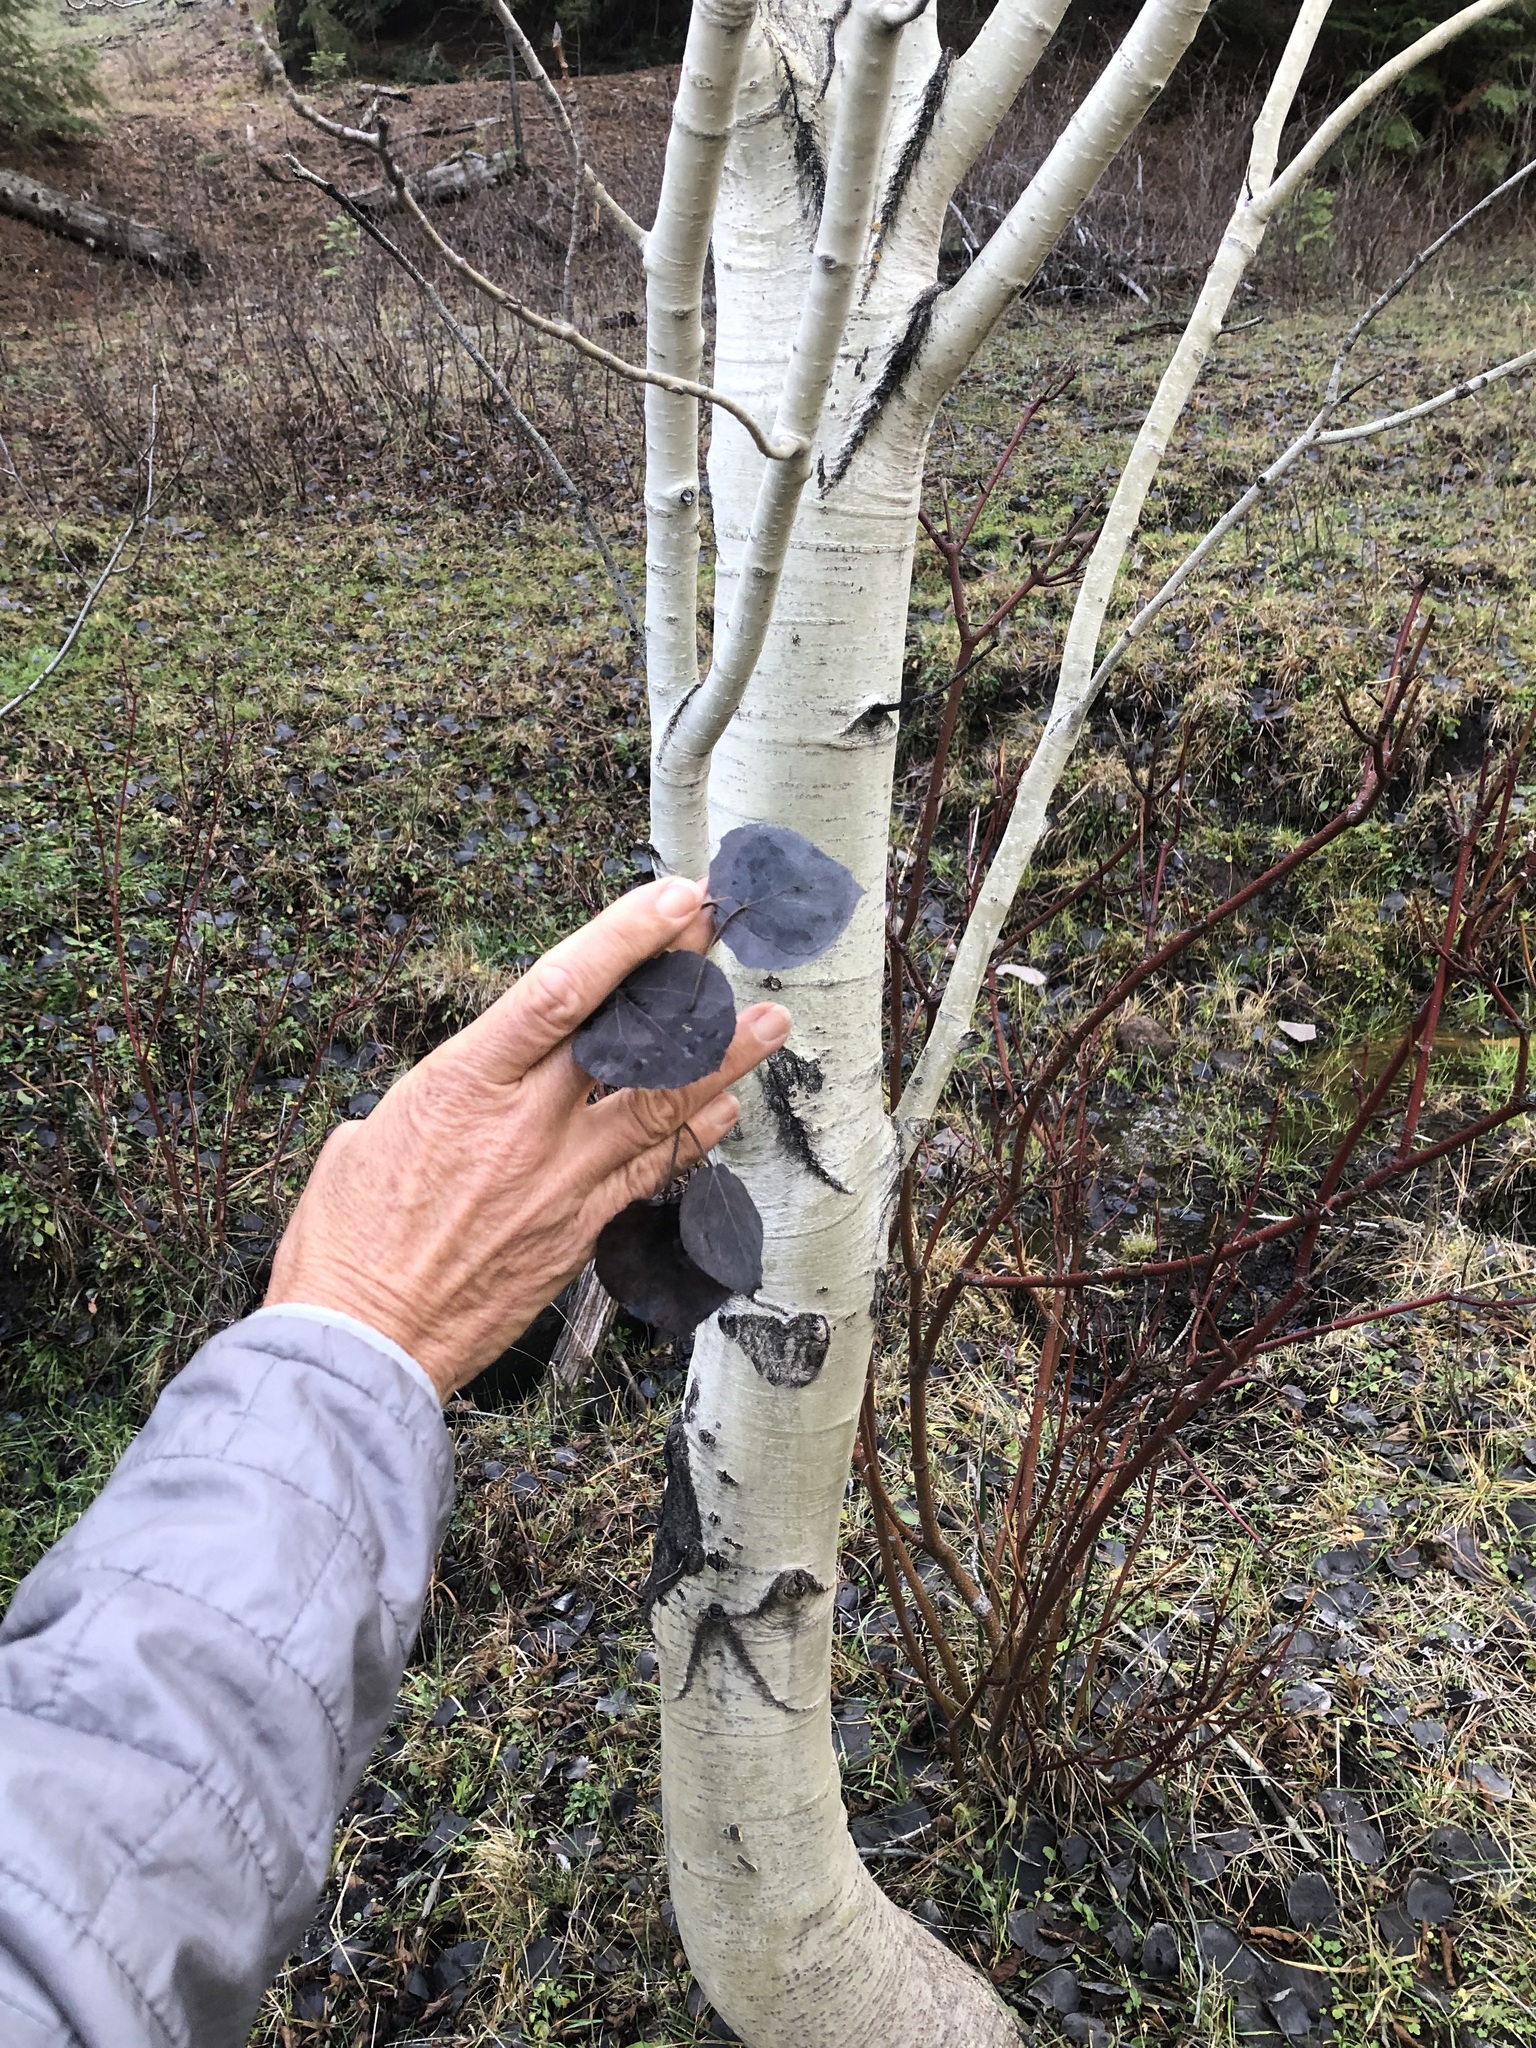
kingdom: Plantae
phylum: Tracheophyta
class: Magnoliopsida
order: Malpighiales
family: Salicaceae
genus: Populus
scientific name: Populus tremuloides
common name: Quaking aspen
